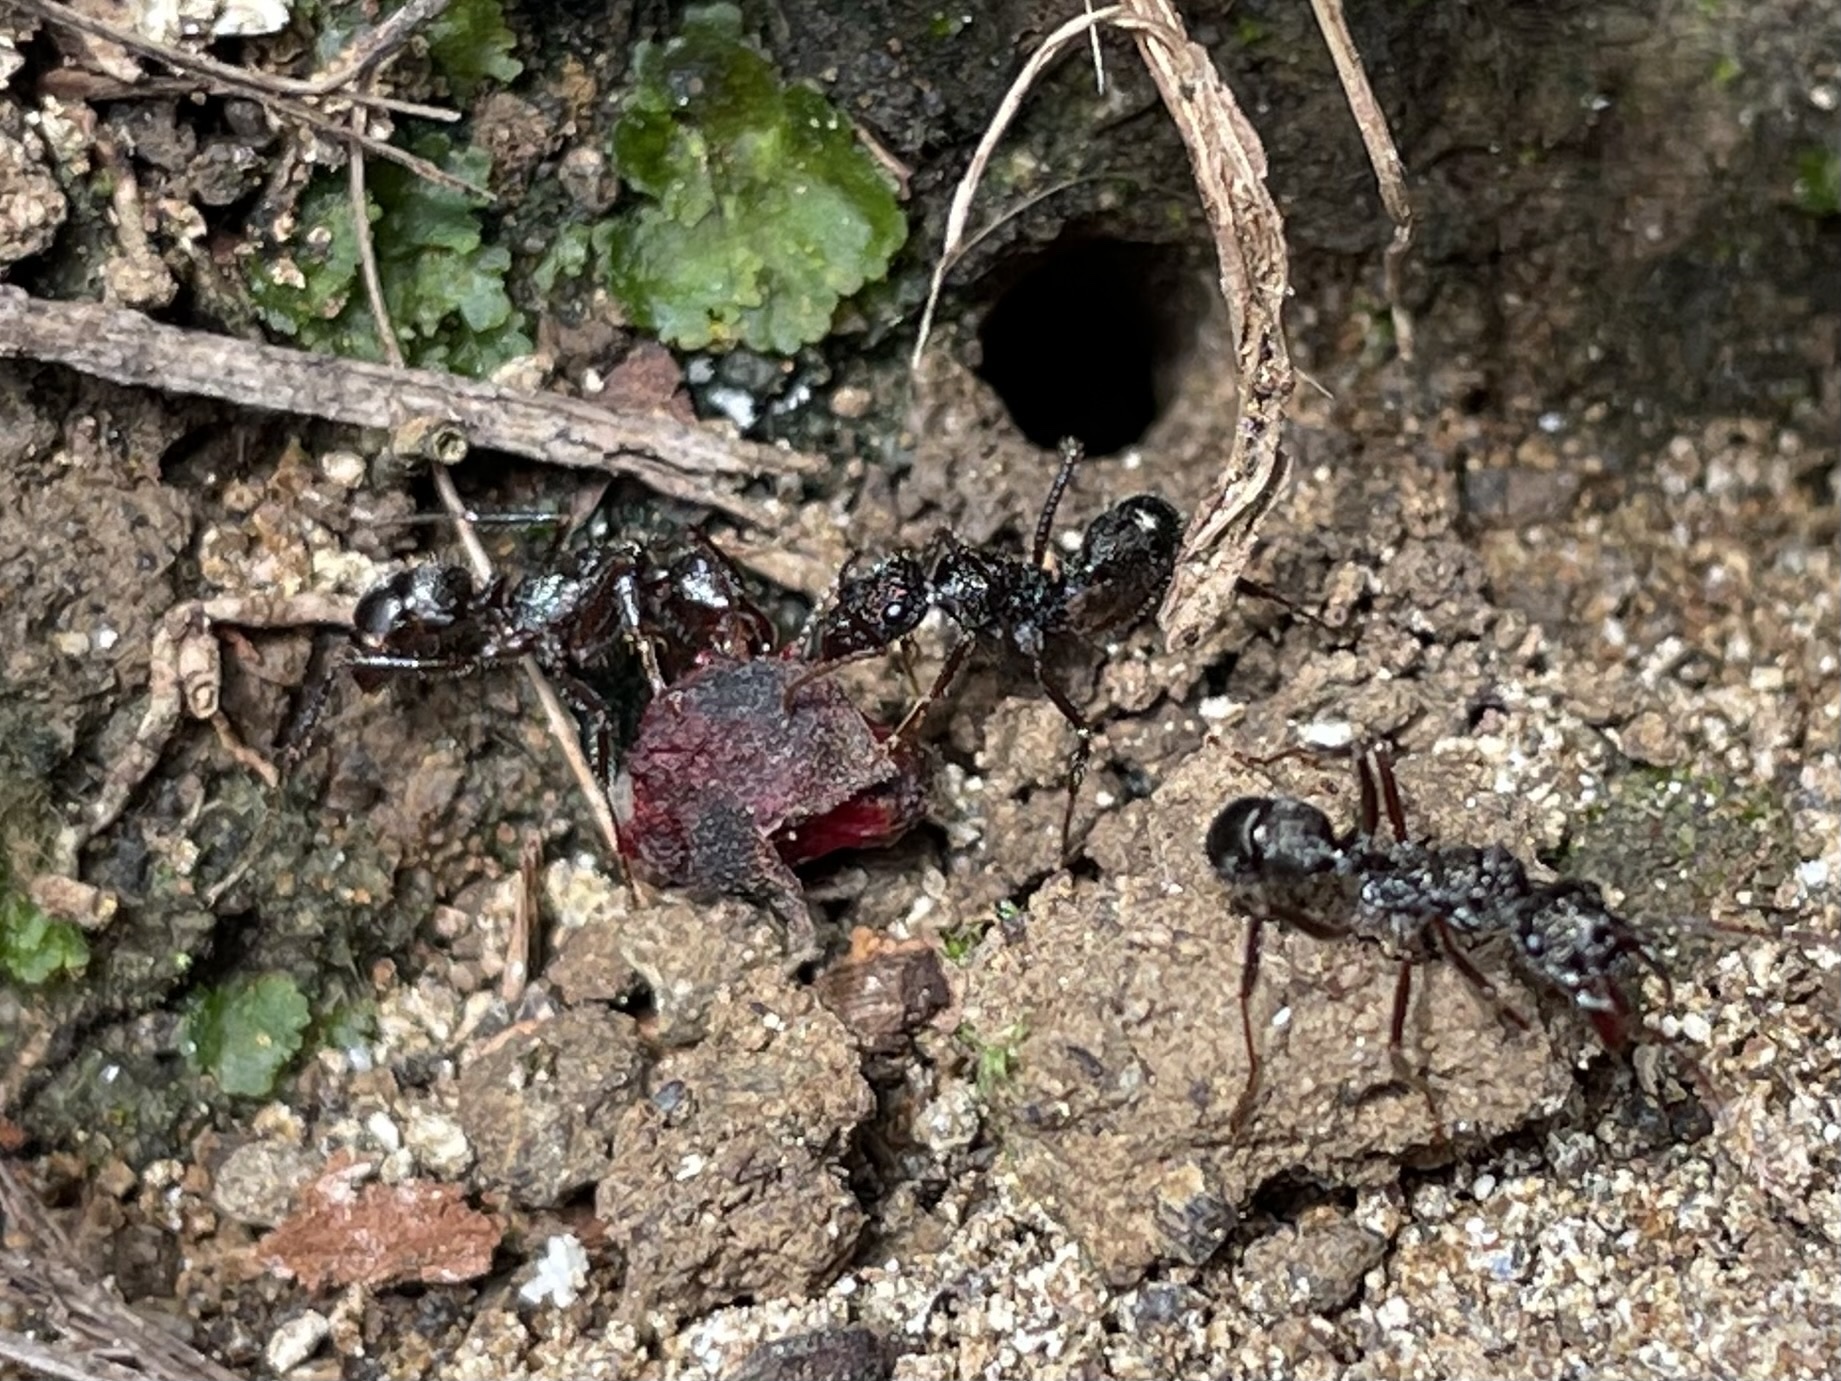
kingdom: Animalia
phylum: Arthropoda
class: Insecta
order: Hymenoptera
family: Formicidae
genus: Ectatomma
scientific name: Ectatomma ruidum
